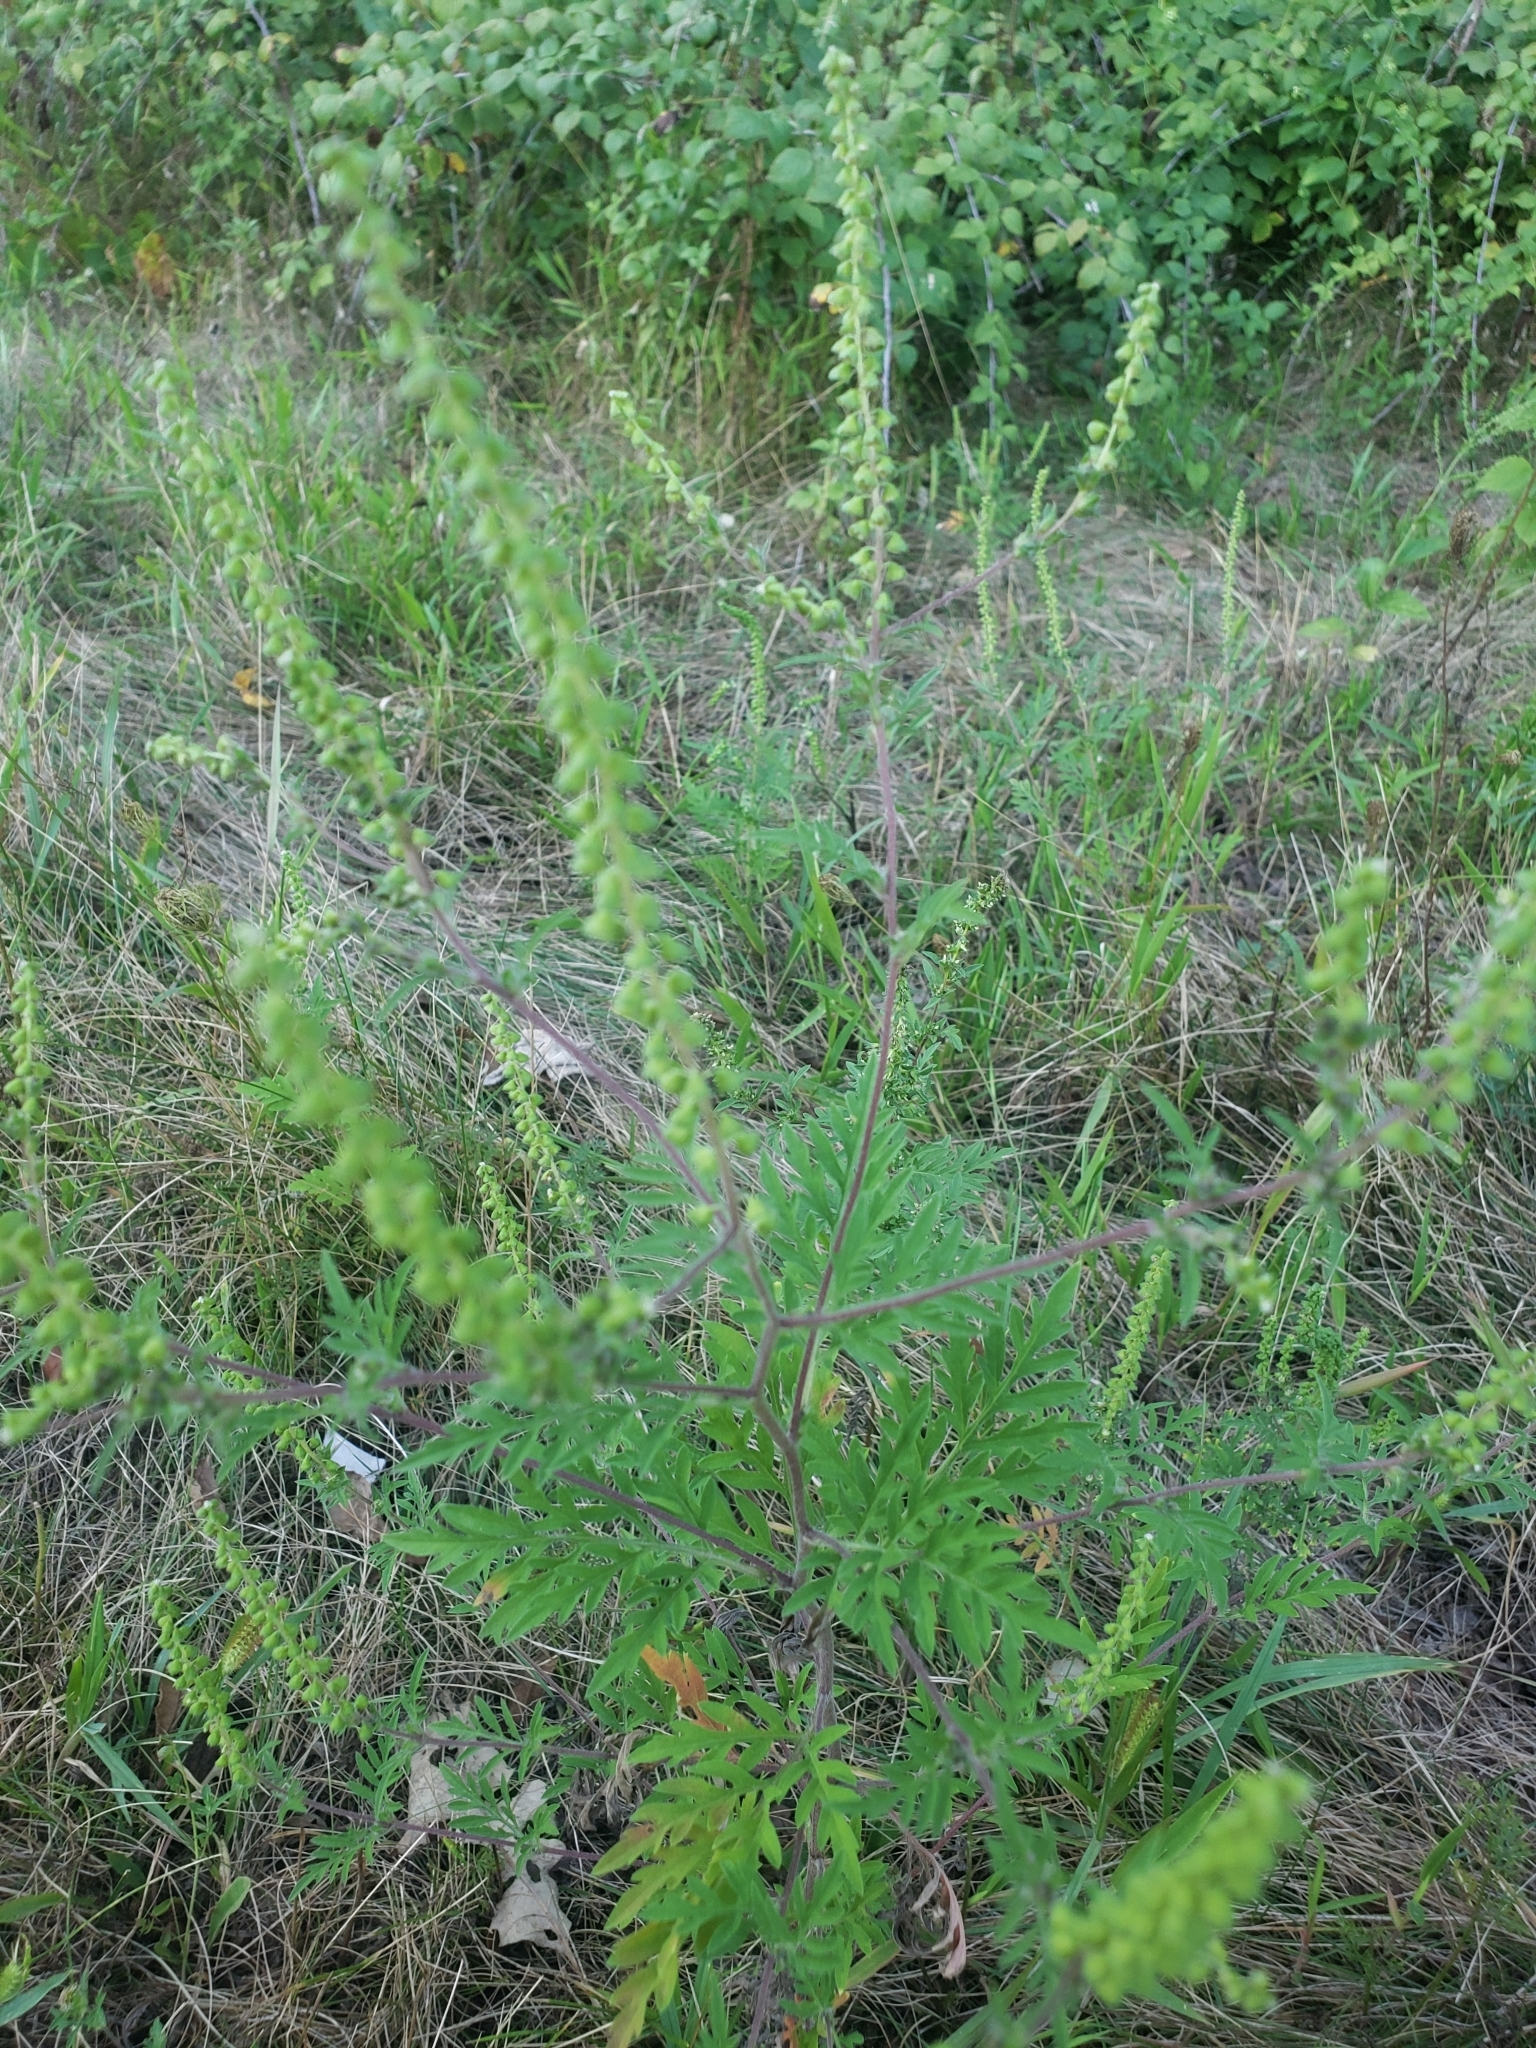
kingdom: Plantae
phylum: Tracheophyta
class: Magnoliopsida
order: Asterales
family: Asteraceae
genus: Ambrosia
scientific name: Ambrosia artemisiifolia
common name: Annual ragweed
